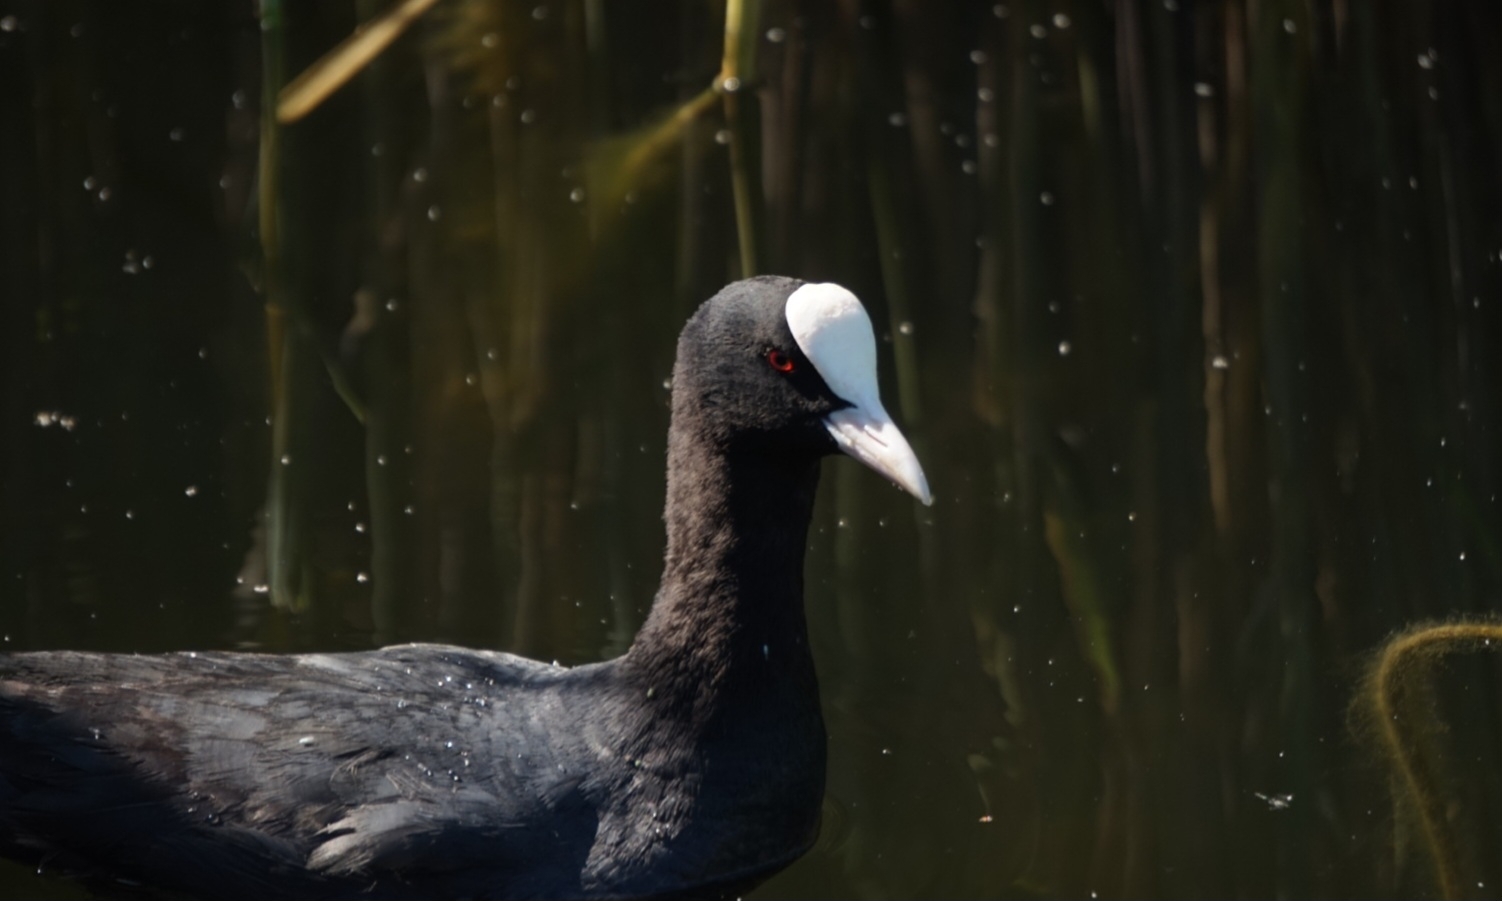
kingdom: Animalia
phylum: Chordata
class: Aves
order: Gruiformes
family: Rallidae
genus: Fulica
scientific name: Fulica atra
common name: Eurasian coot
